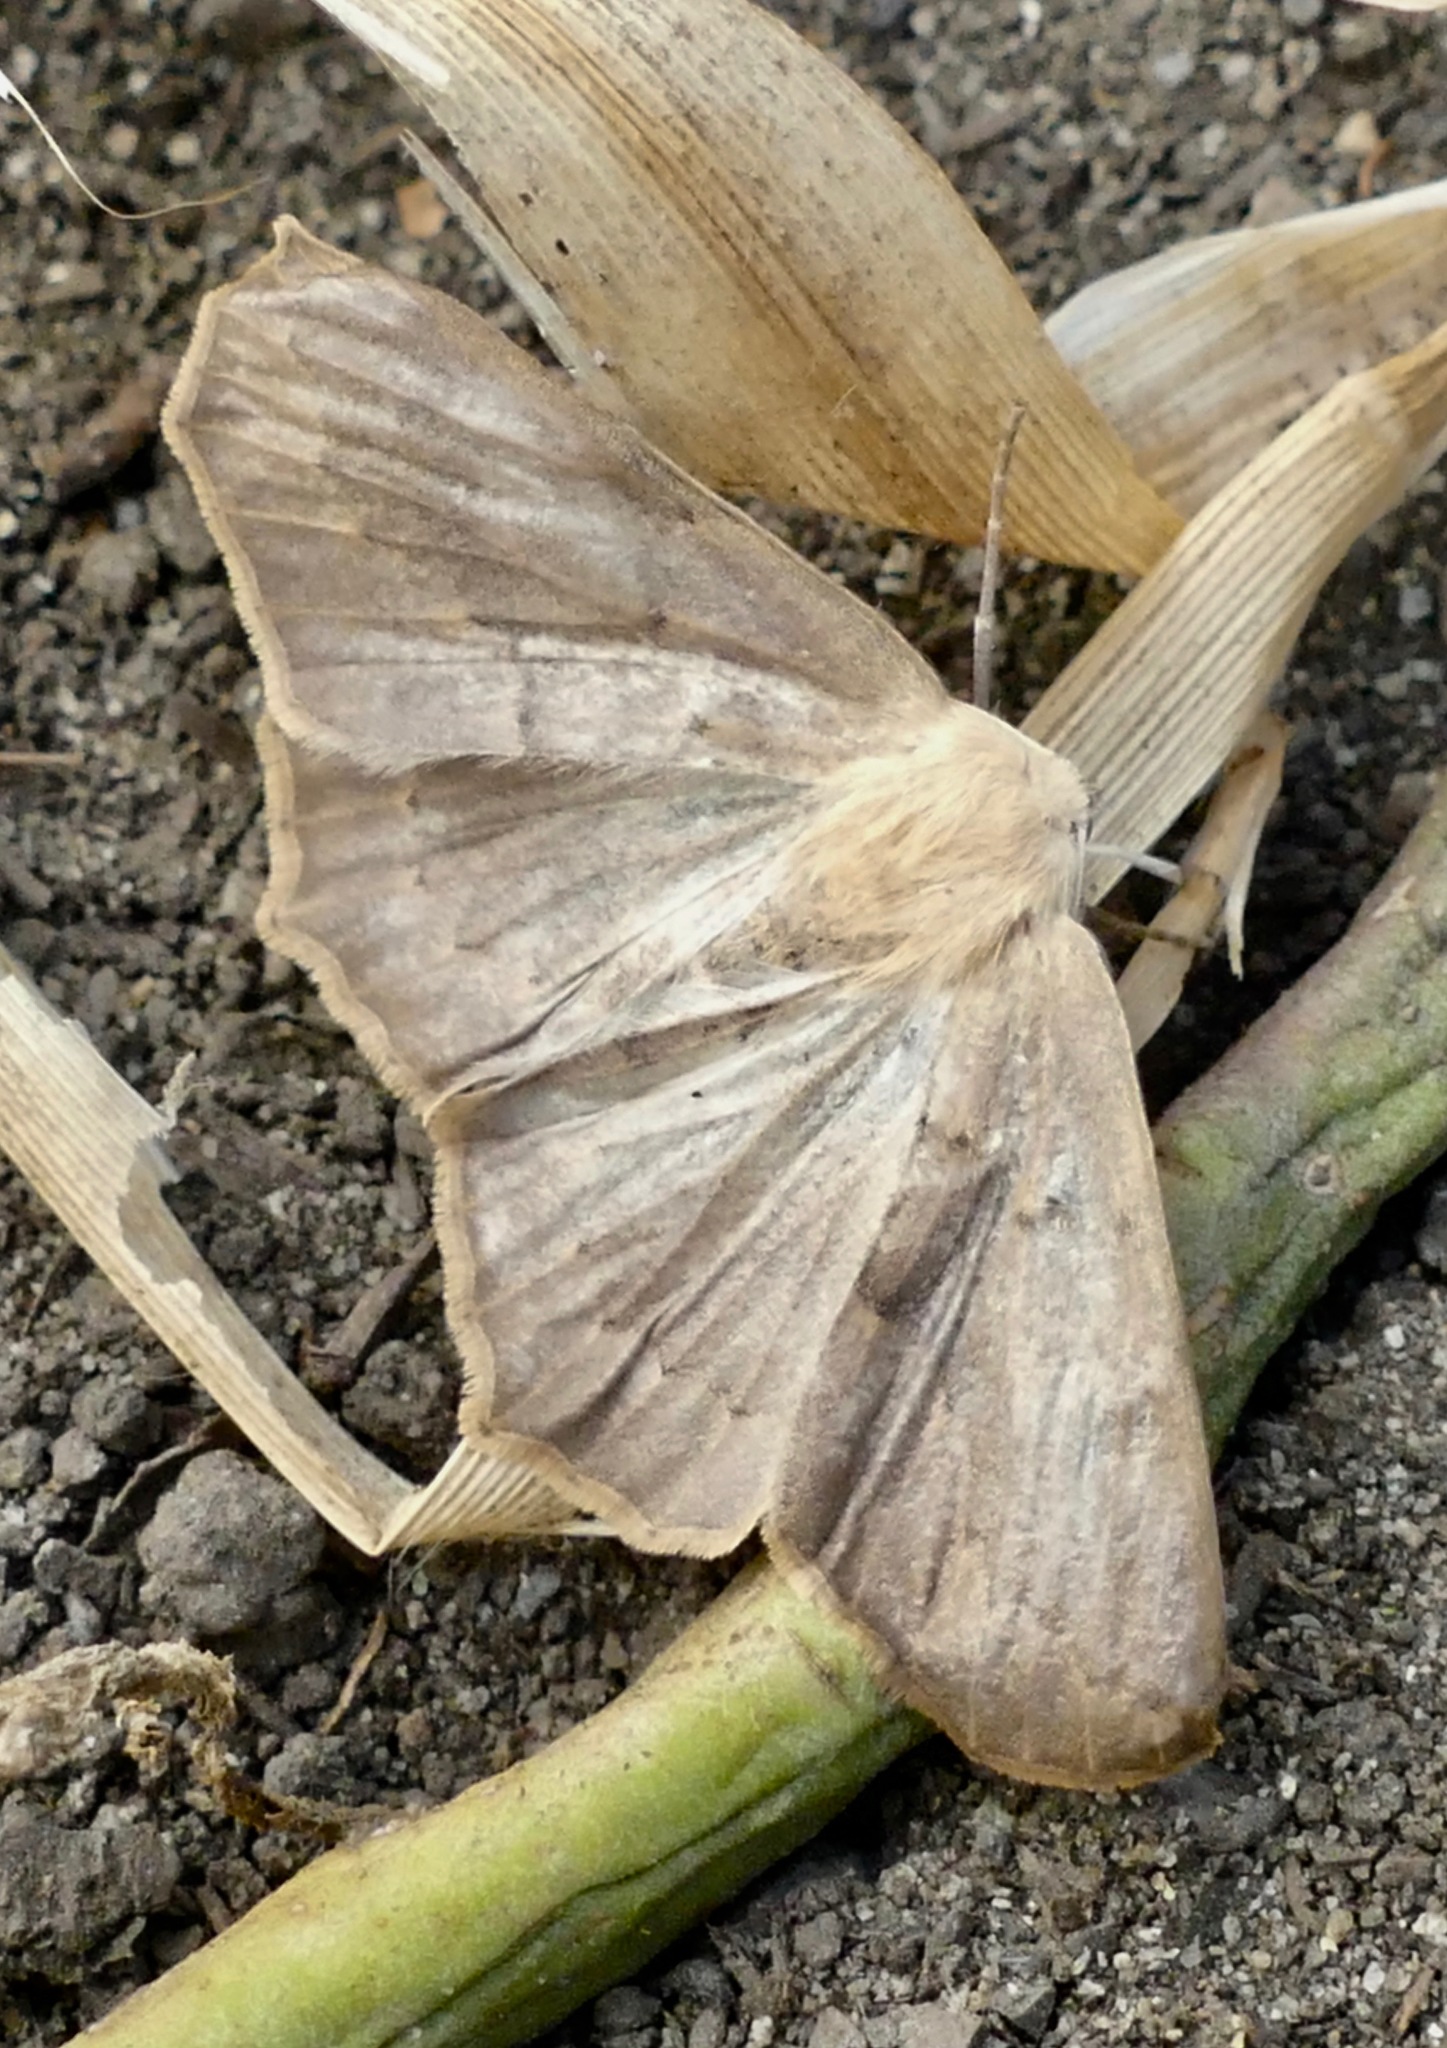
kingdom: Animalia
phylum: Arthropoda
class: Insecta
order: Lepidoptera
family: Geometridae
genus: Sabulodes
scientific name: Sabulodes aegrotata
